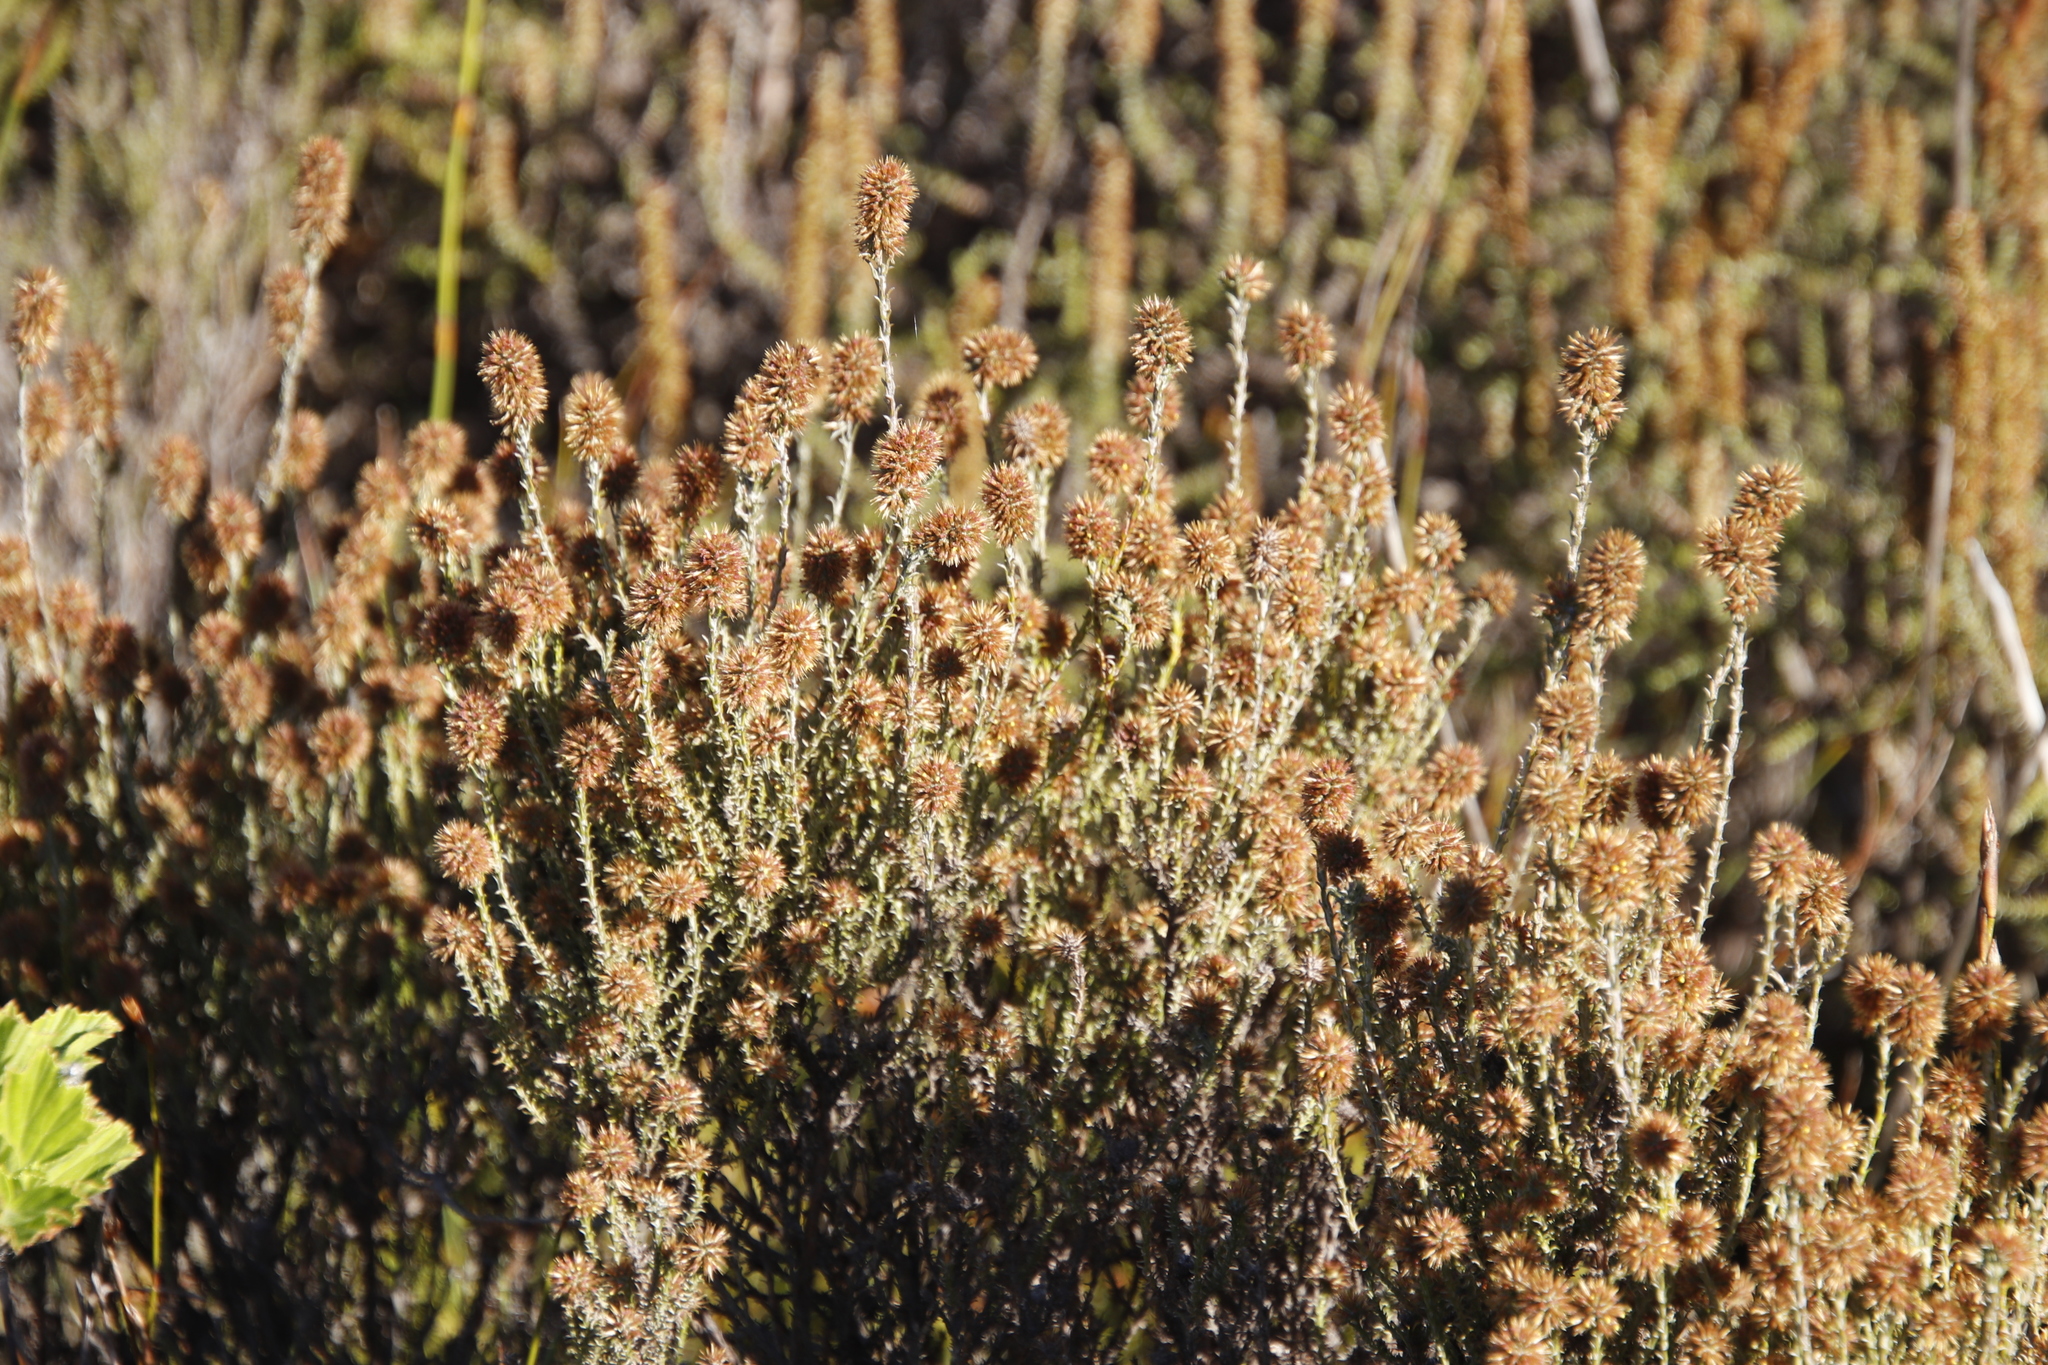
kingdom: Plantae
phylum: Tracheophyta
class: Magnoliopsida
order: Asterales
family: Asteraceae
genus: Seriphium
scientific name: Seriphium spirale
